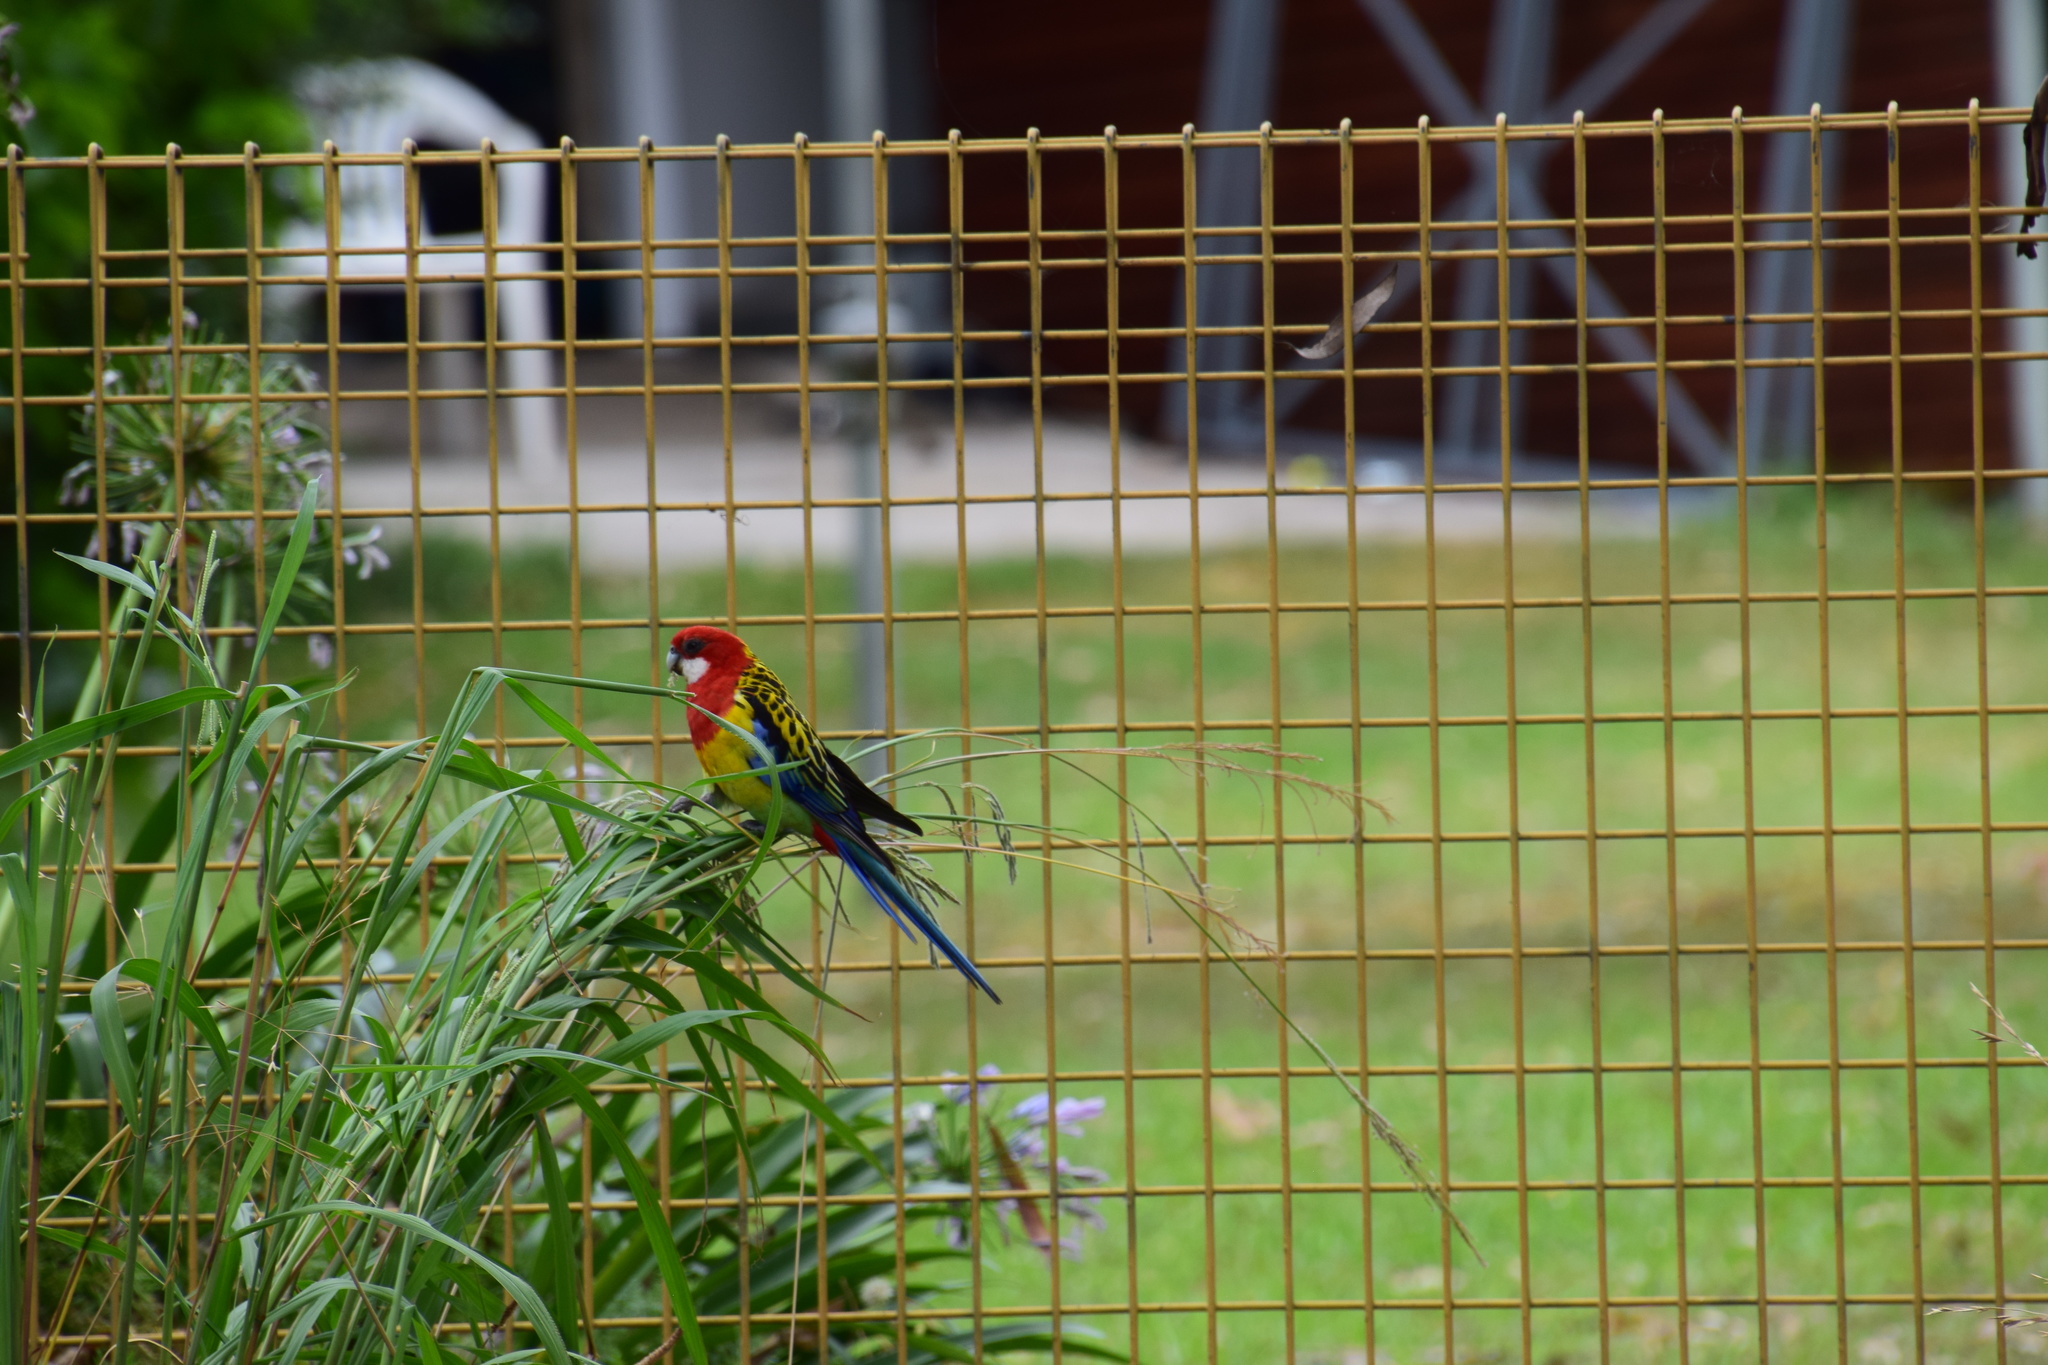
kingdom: Animalia
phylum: Chordata
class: Aves
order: Psittaciformes
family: Psittacidae
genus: Platycercus
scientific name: Platycercus eximius
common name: Eastern rosella
